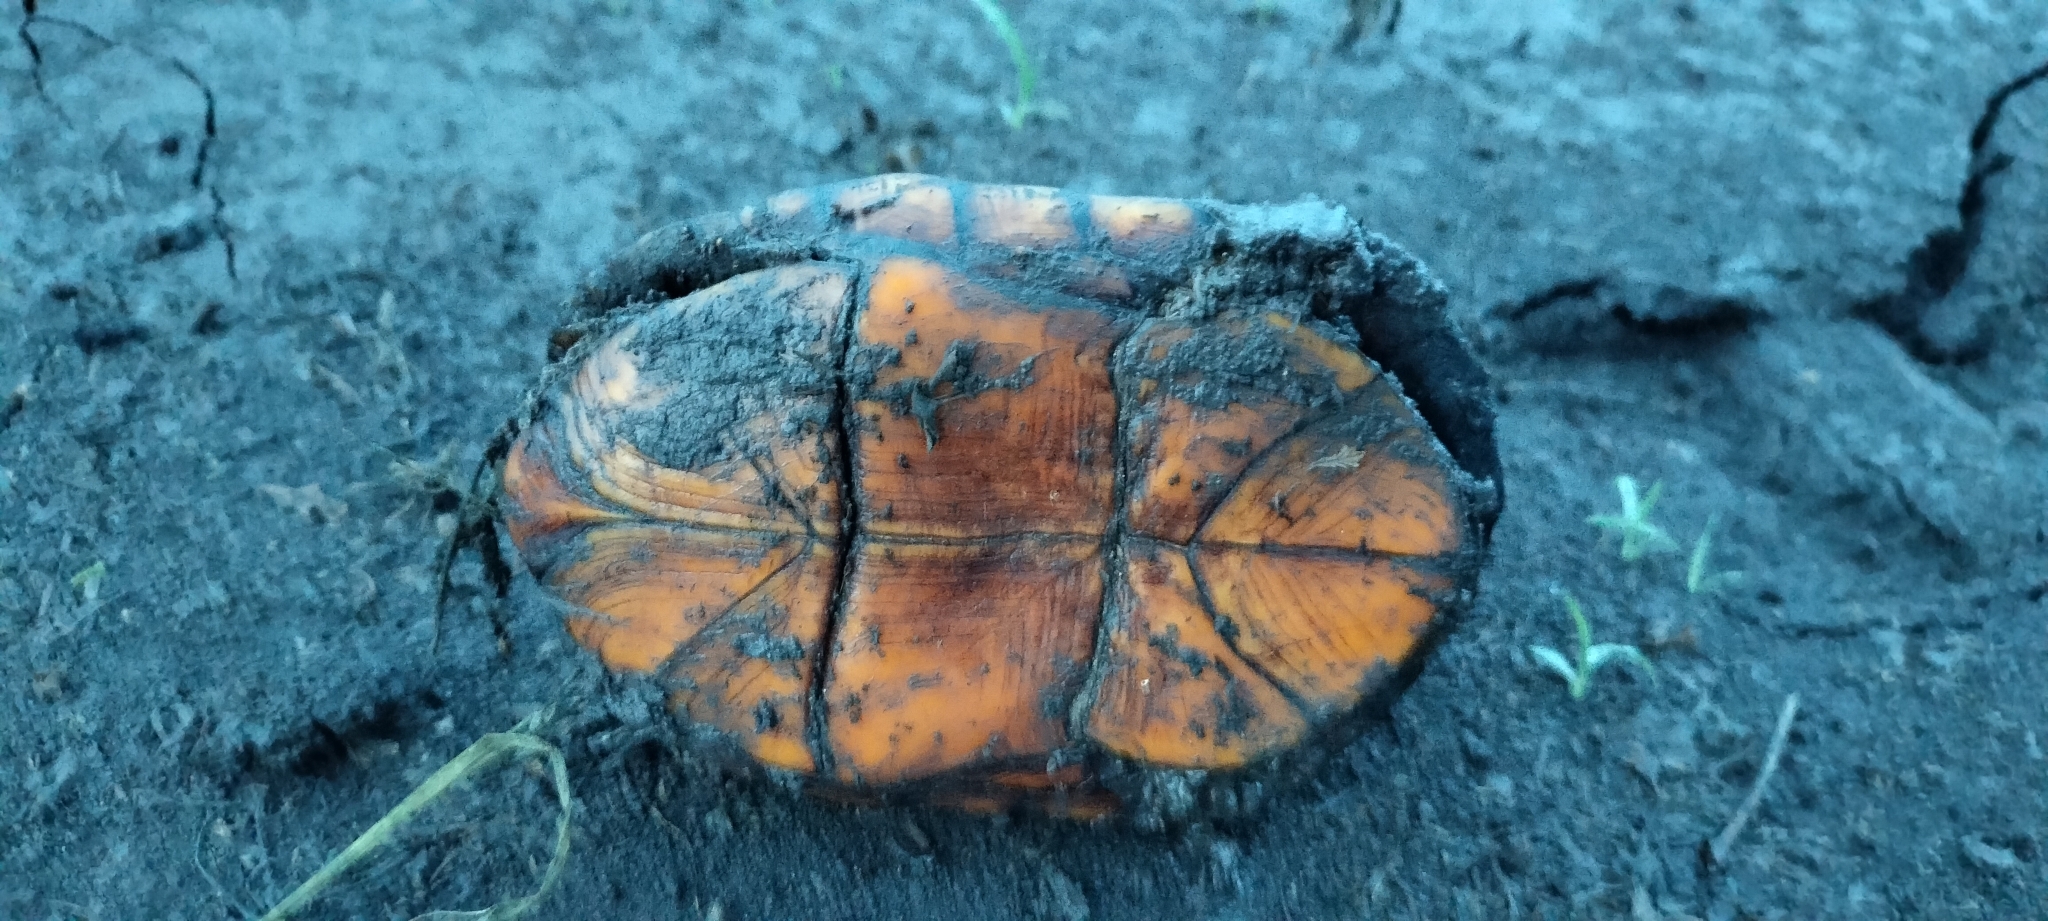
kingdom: Animalia
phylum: Chordata
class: Testudines
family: Kinosternidae
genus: Kinosternon
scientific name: Kinosternon scorpioides
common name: Scorpion mud turtle
